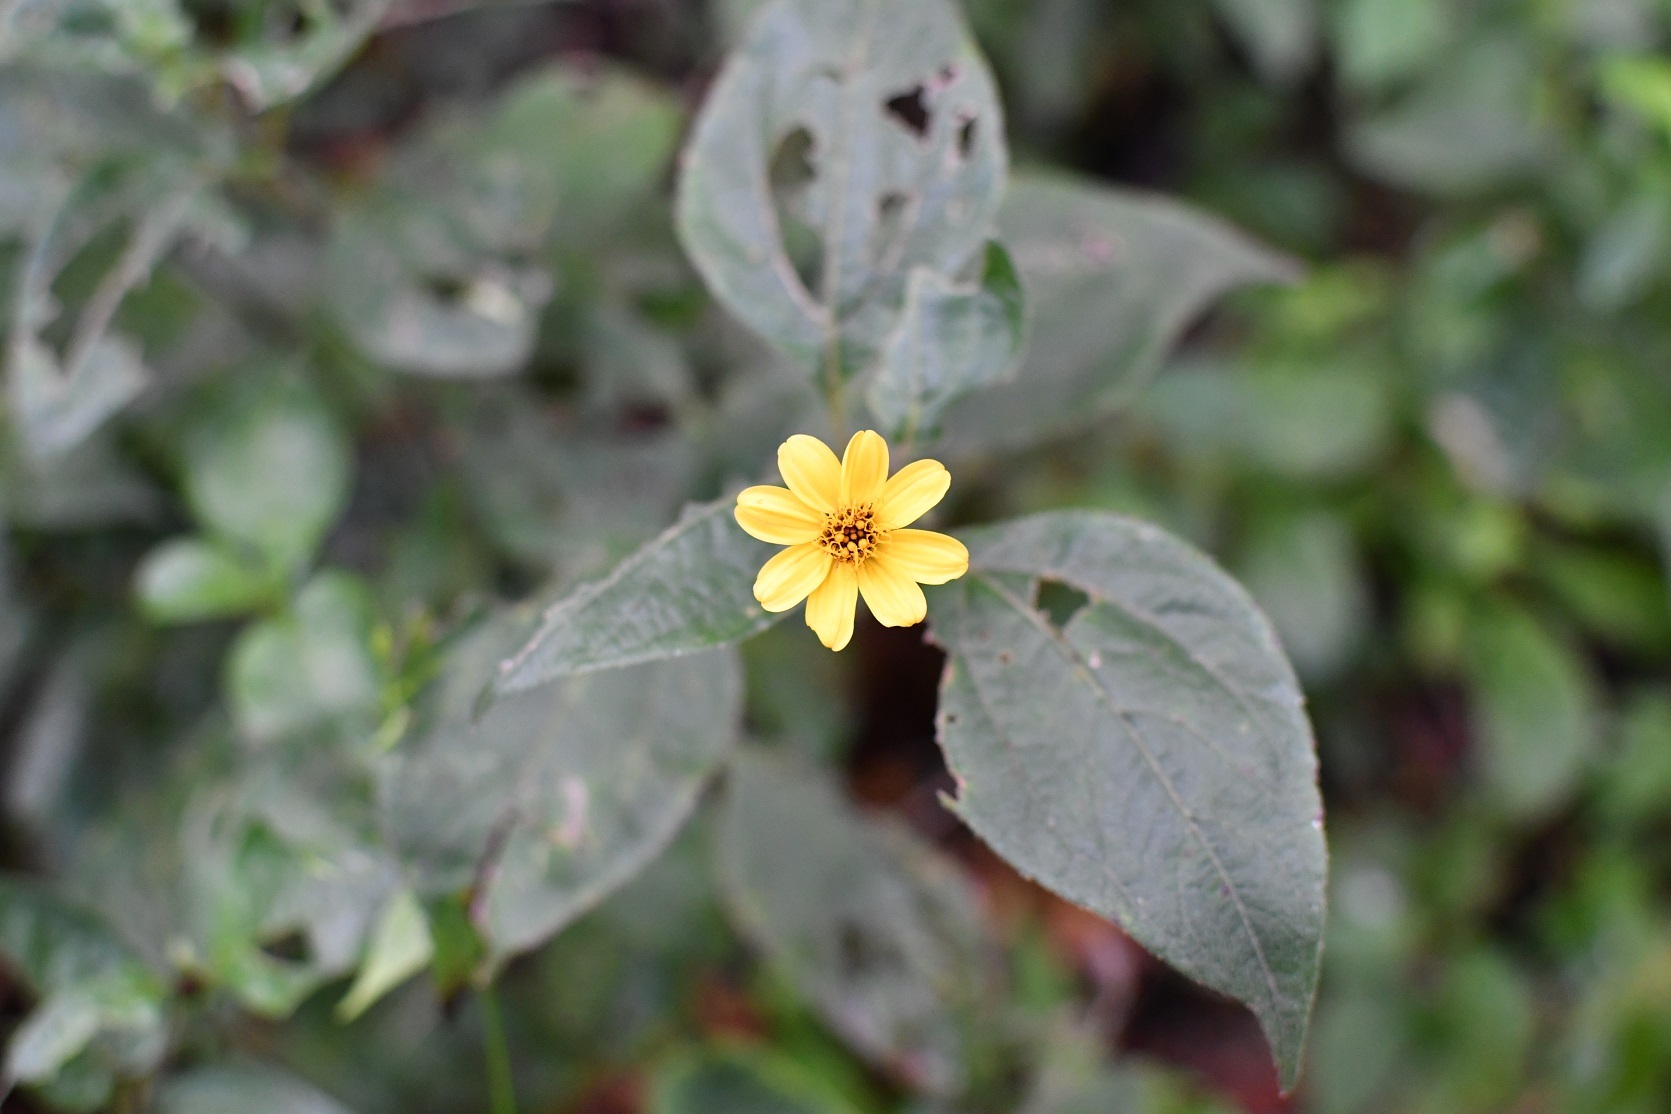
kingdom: Plantae
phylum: Tracheophyta
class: Magnoliopsida
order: Asterales
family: Asteraceae
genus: Perymenium
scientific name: Perymenium grande
